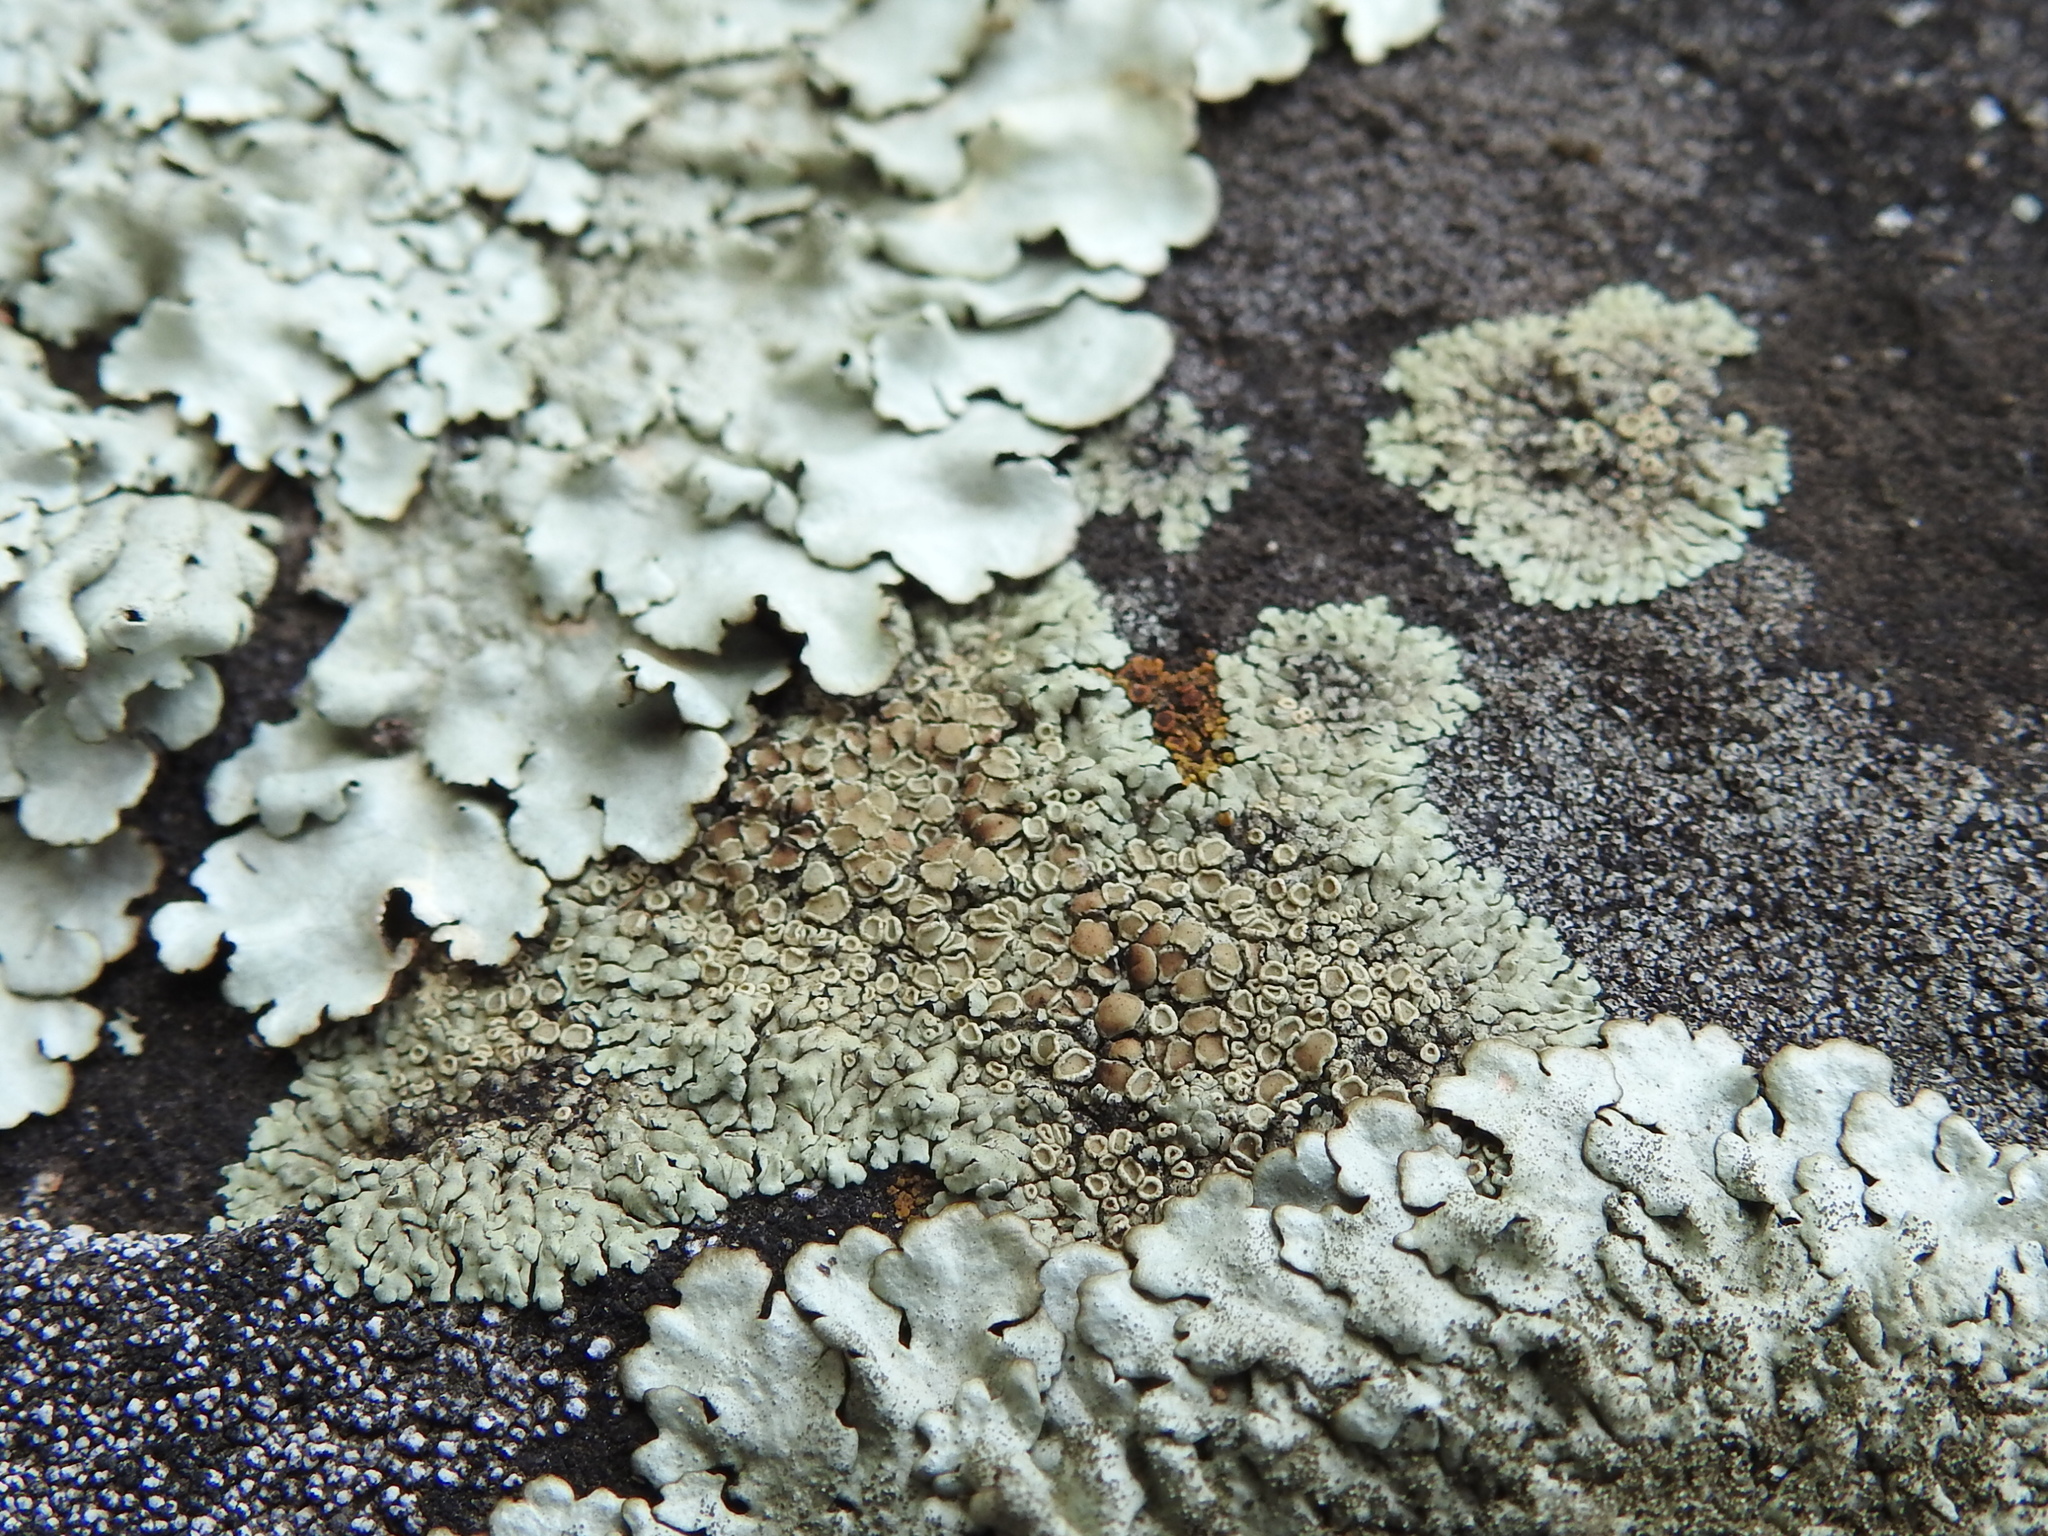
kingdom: Fungi
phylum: Ascomycota
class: Lecanoromycetes
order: Lecanorales
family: Lecanoraceae
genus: Protoparmeliopsis
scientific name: Protoparmeliopsis muralis
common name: Stonewall rim lichen
